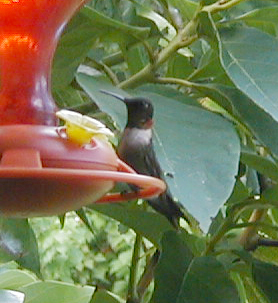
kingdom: Animalia
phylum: Chordata
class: Aves
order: Apodiformes
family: Trochilidae
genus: Archilochus
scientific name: Archilochus colubris
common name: Ruby-throated hummingbird
